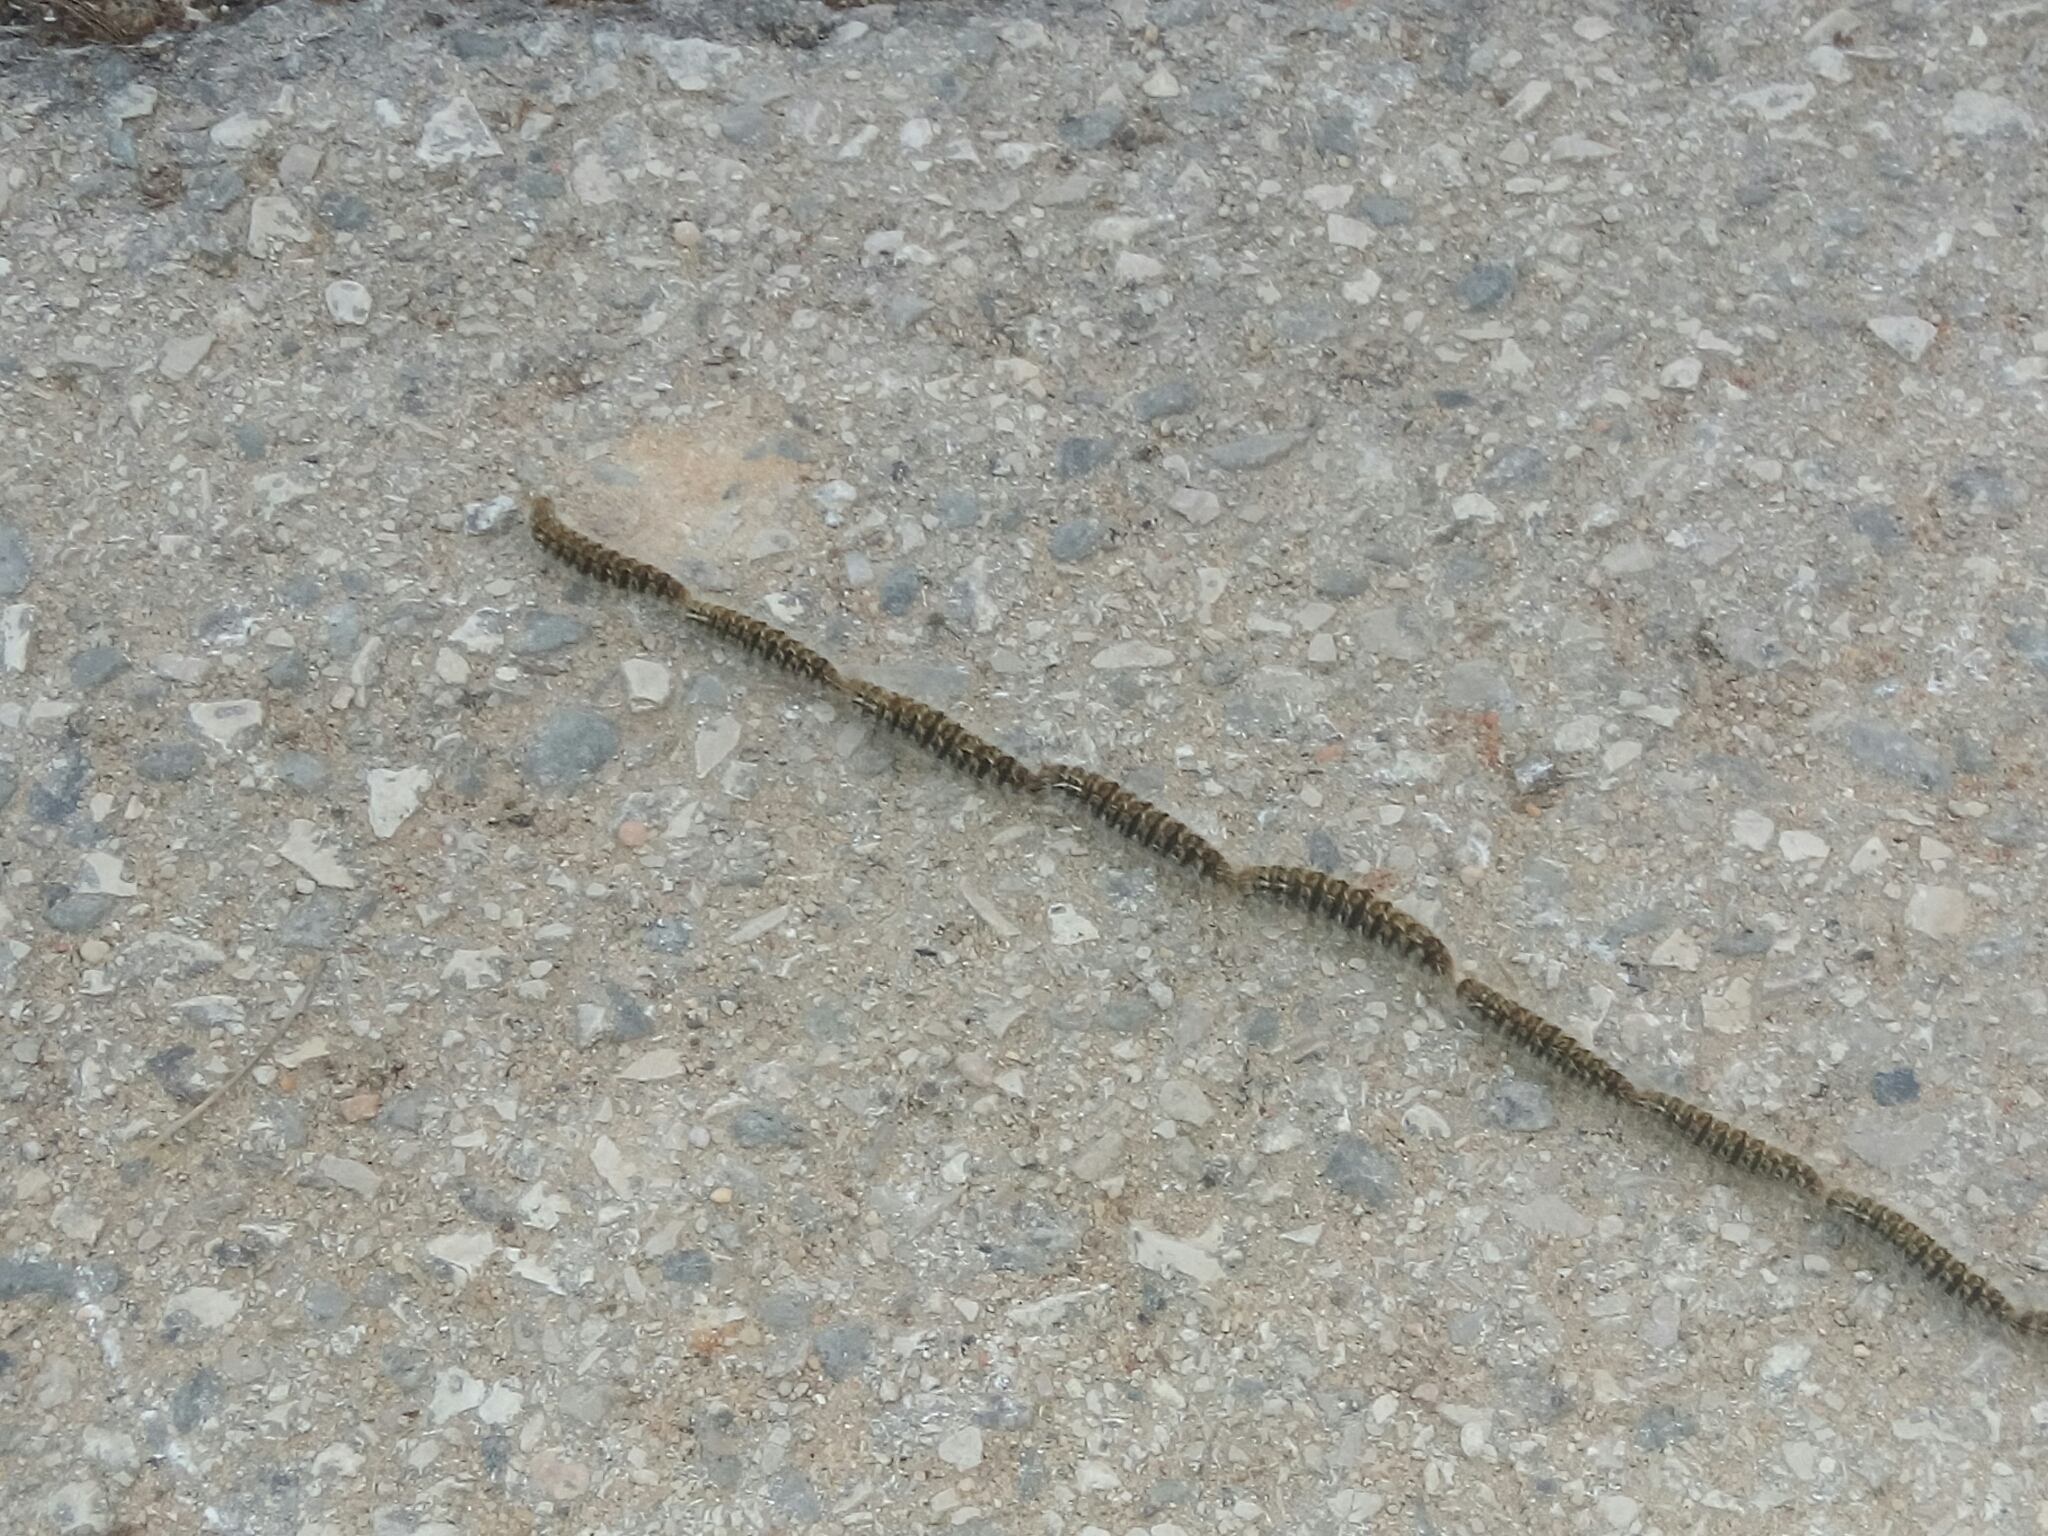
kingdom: Animalia
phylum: Arthropoda
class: Insecta
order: Lepidoptera
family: Notodontidae
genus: Thaumetopoea
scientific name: Thaumetopoea pityocampa
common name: Pine processionary
